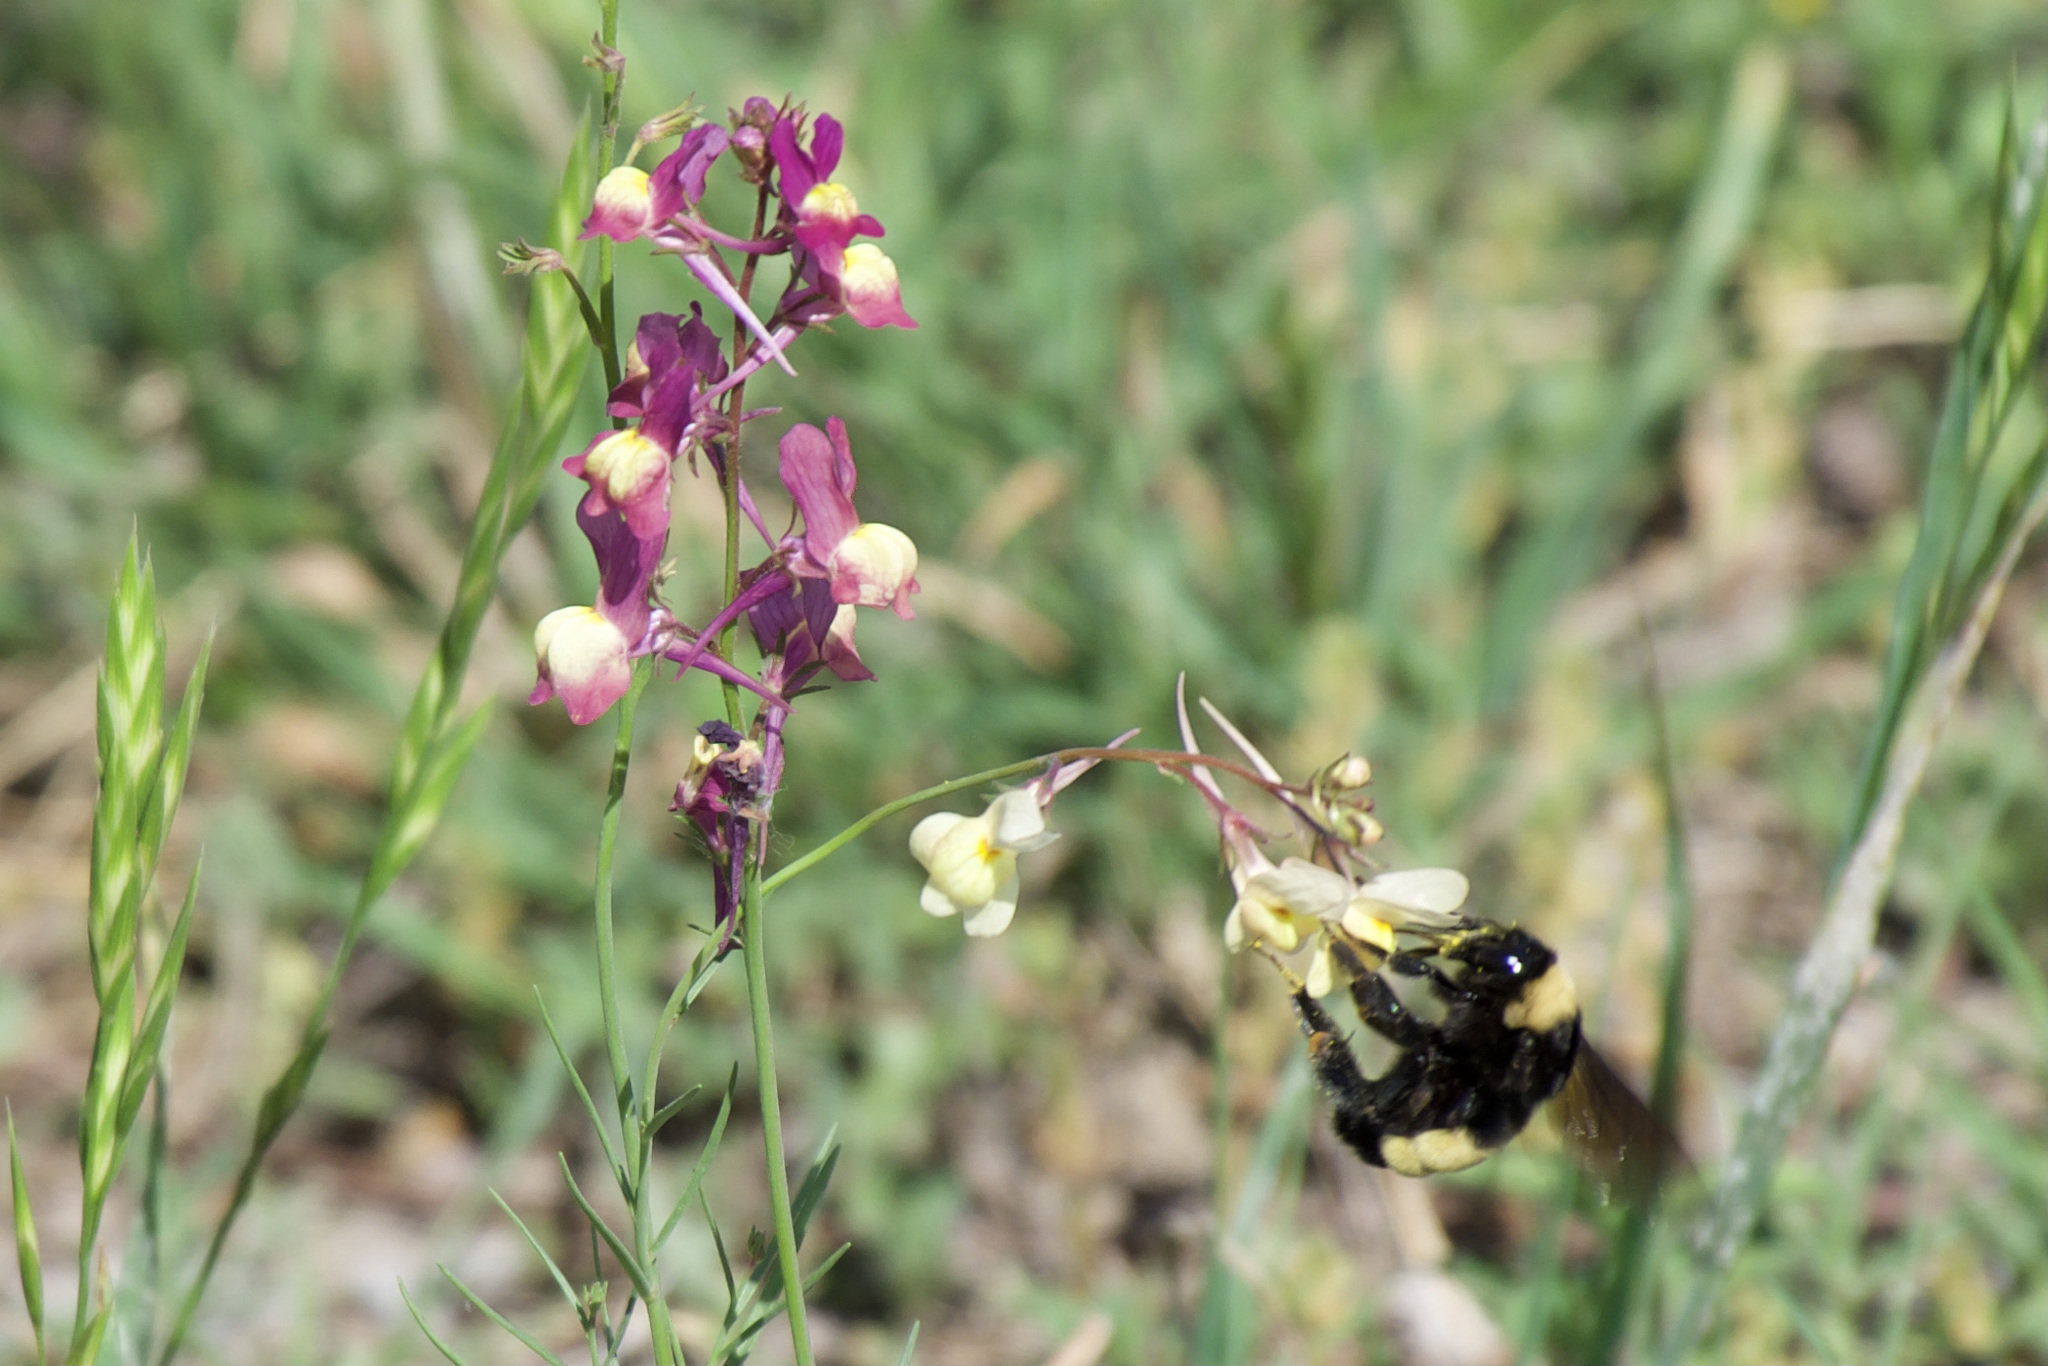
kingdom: Animalia
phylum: Arthropoda
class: Insecta
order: Hymenoptera
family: Apidae
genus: Bombus
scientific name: Bombus pensylvanicus
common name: Bumble bee
